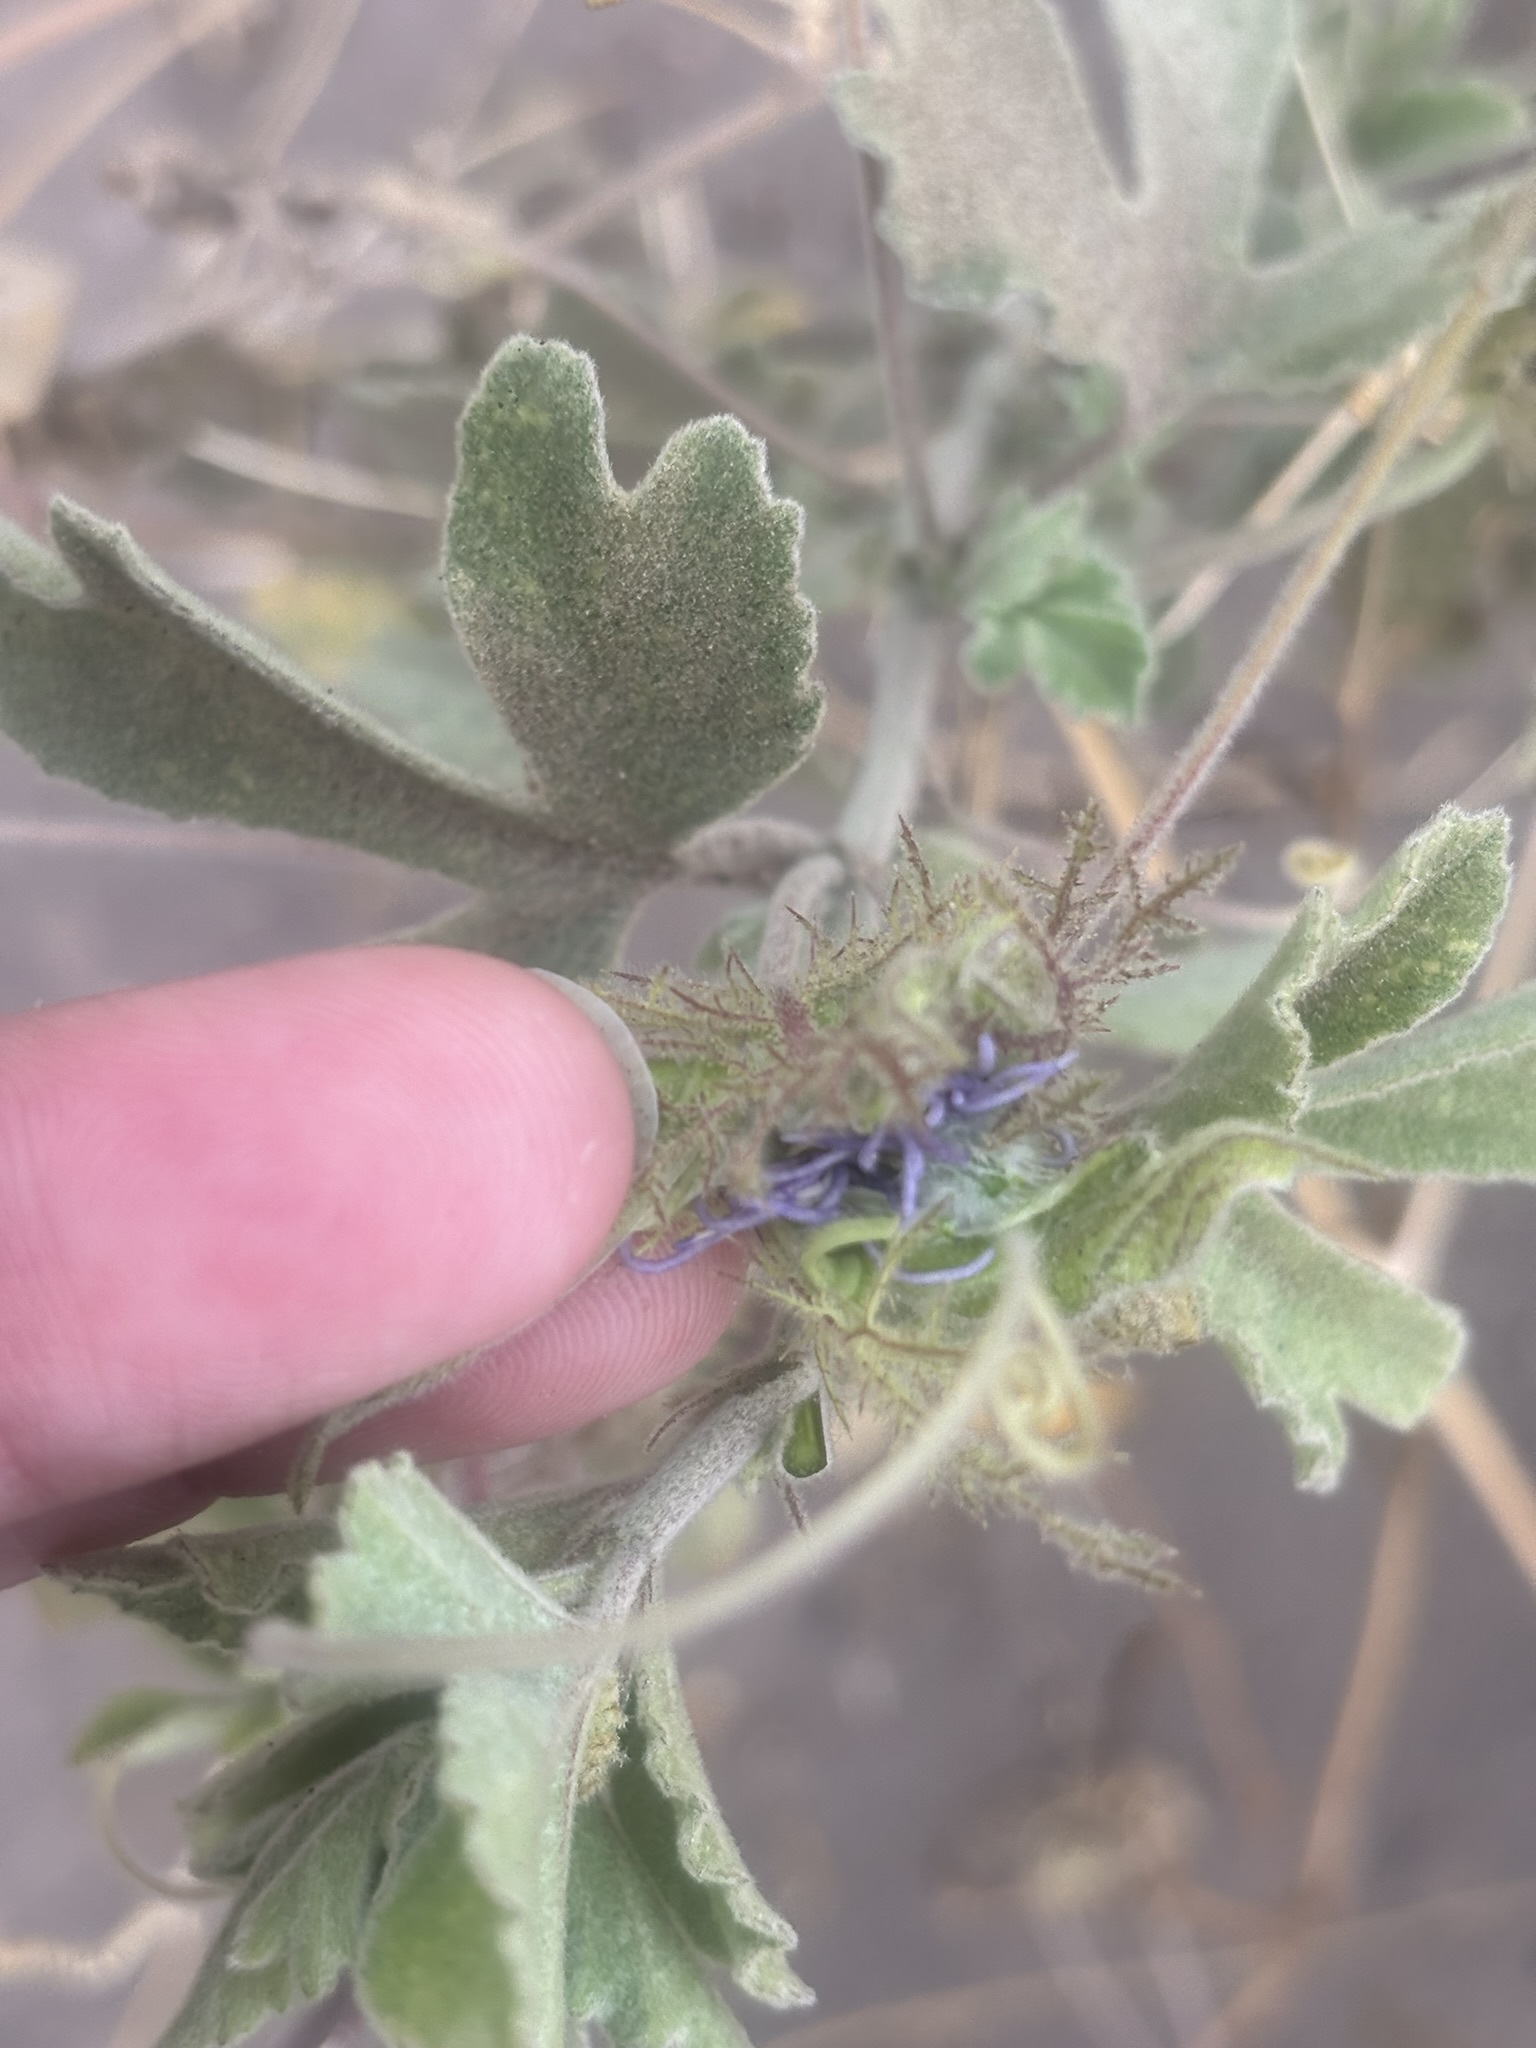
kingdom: Plantae
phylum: Tracheophyta
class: Magnoliopsida
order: Malpighiales
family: Passifloraceae
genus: Passiflora
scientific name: Passiflora palmeri
